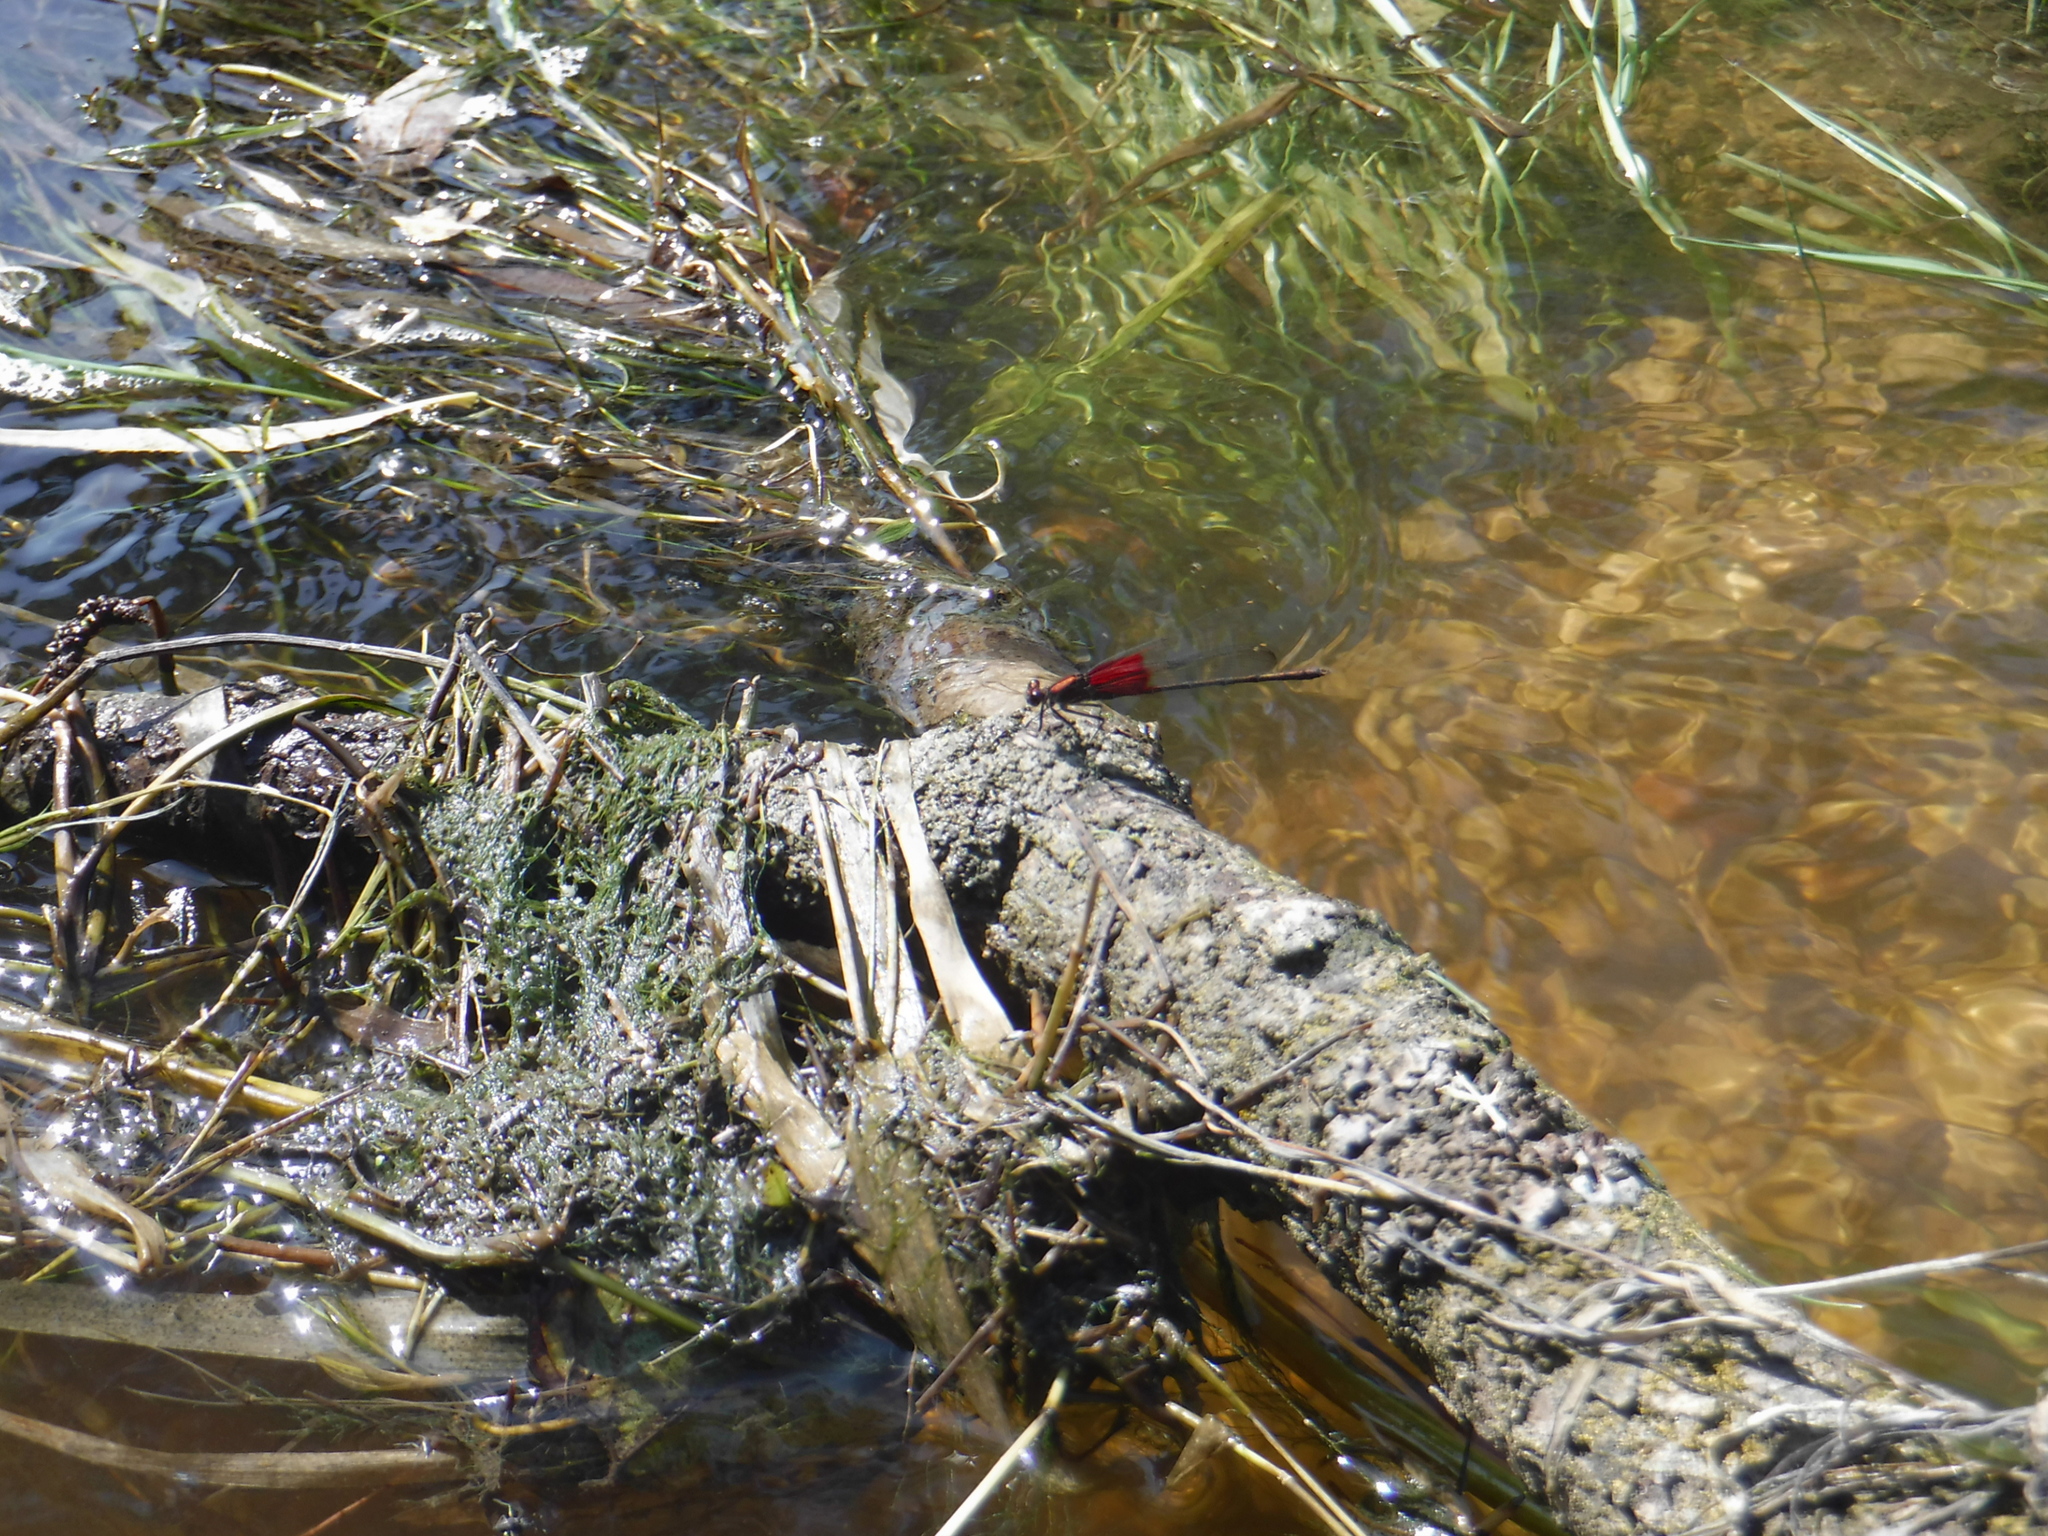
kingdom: Animalia
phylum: Arthropoda
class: Insecta
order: Odonata
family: Calopterygidae
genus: Hetaerina
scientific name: Hetaerina americana
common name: American rubyspot
